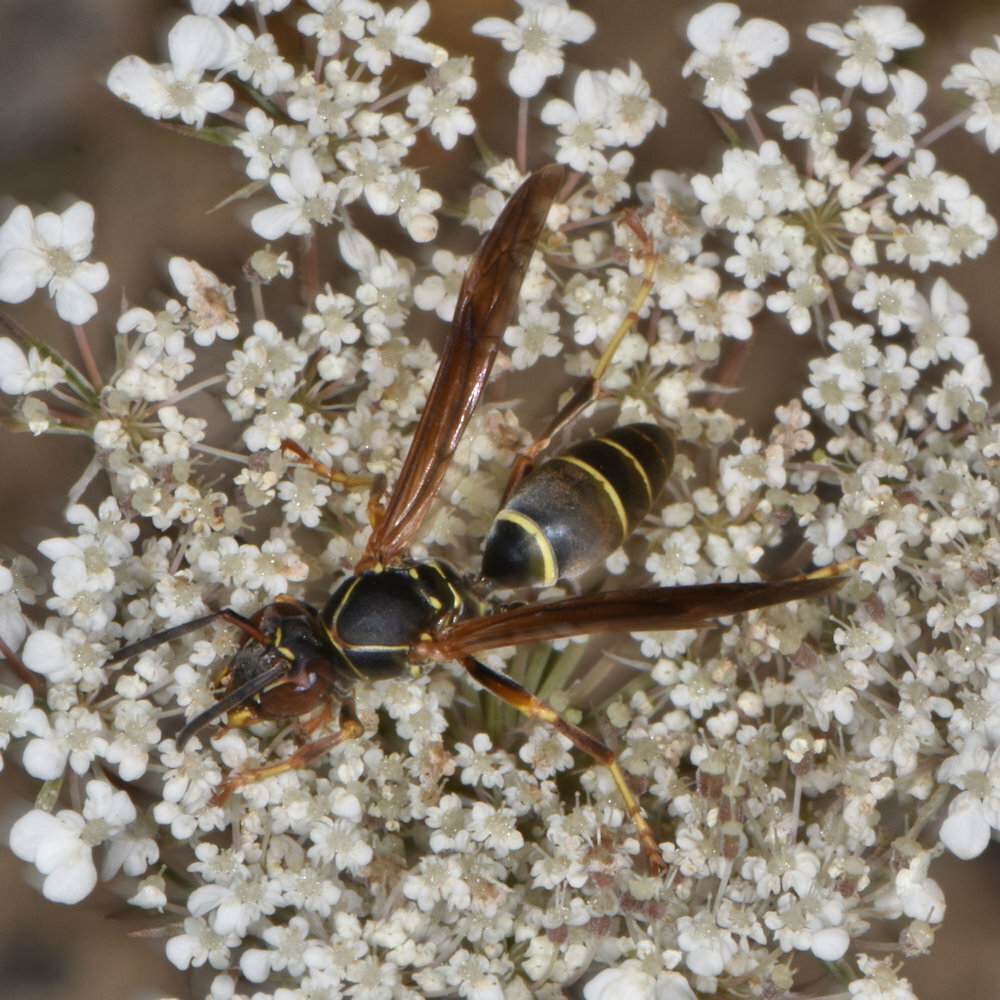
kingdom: Animalia
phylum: Arthropoda
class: Insecta
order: Hymenoptera
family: Eumenidae
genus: Polistes
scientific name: Polistes fuscatus
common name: Dark paper wasp
